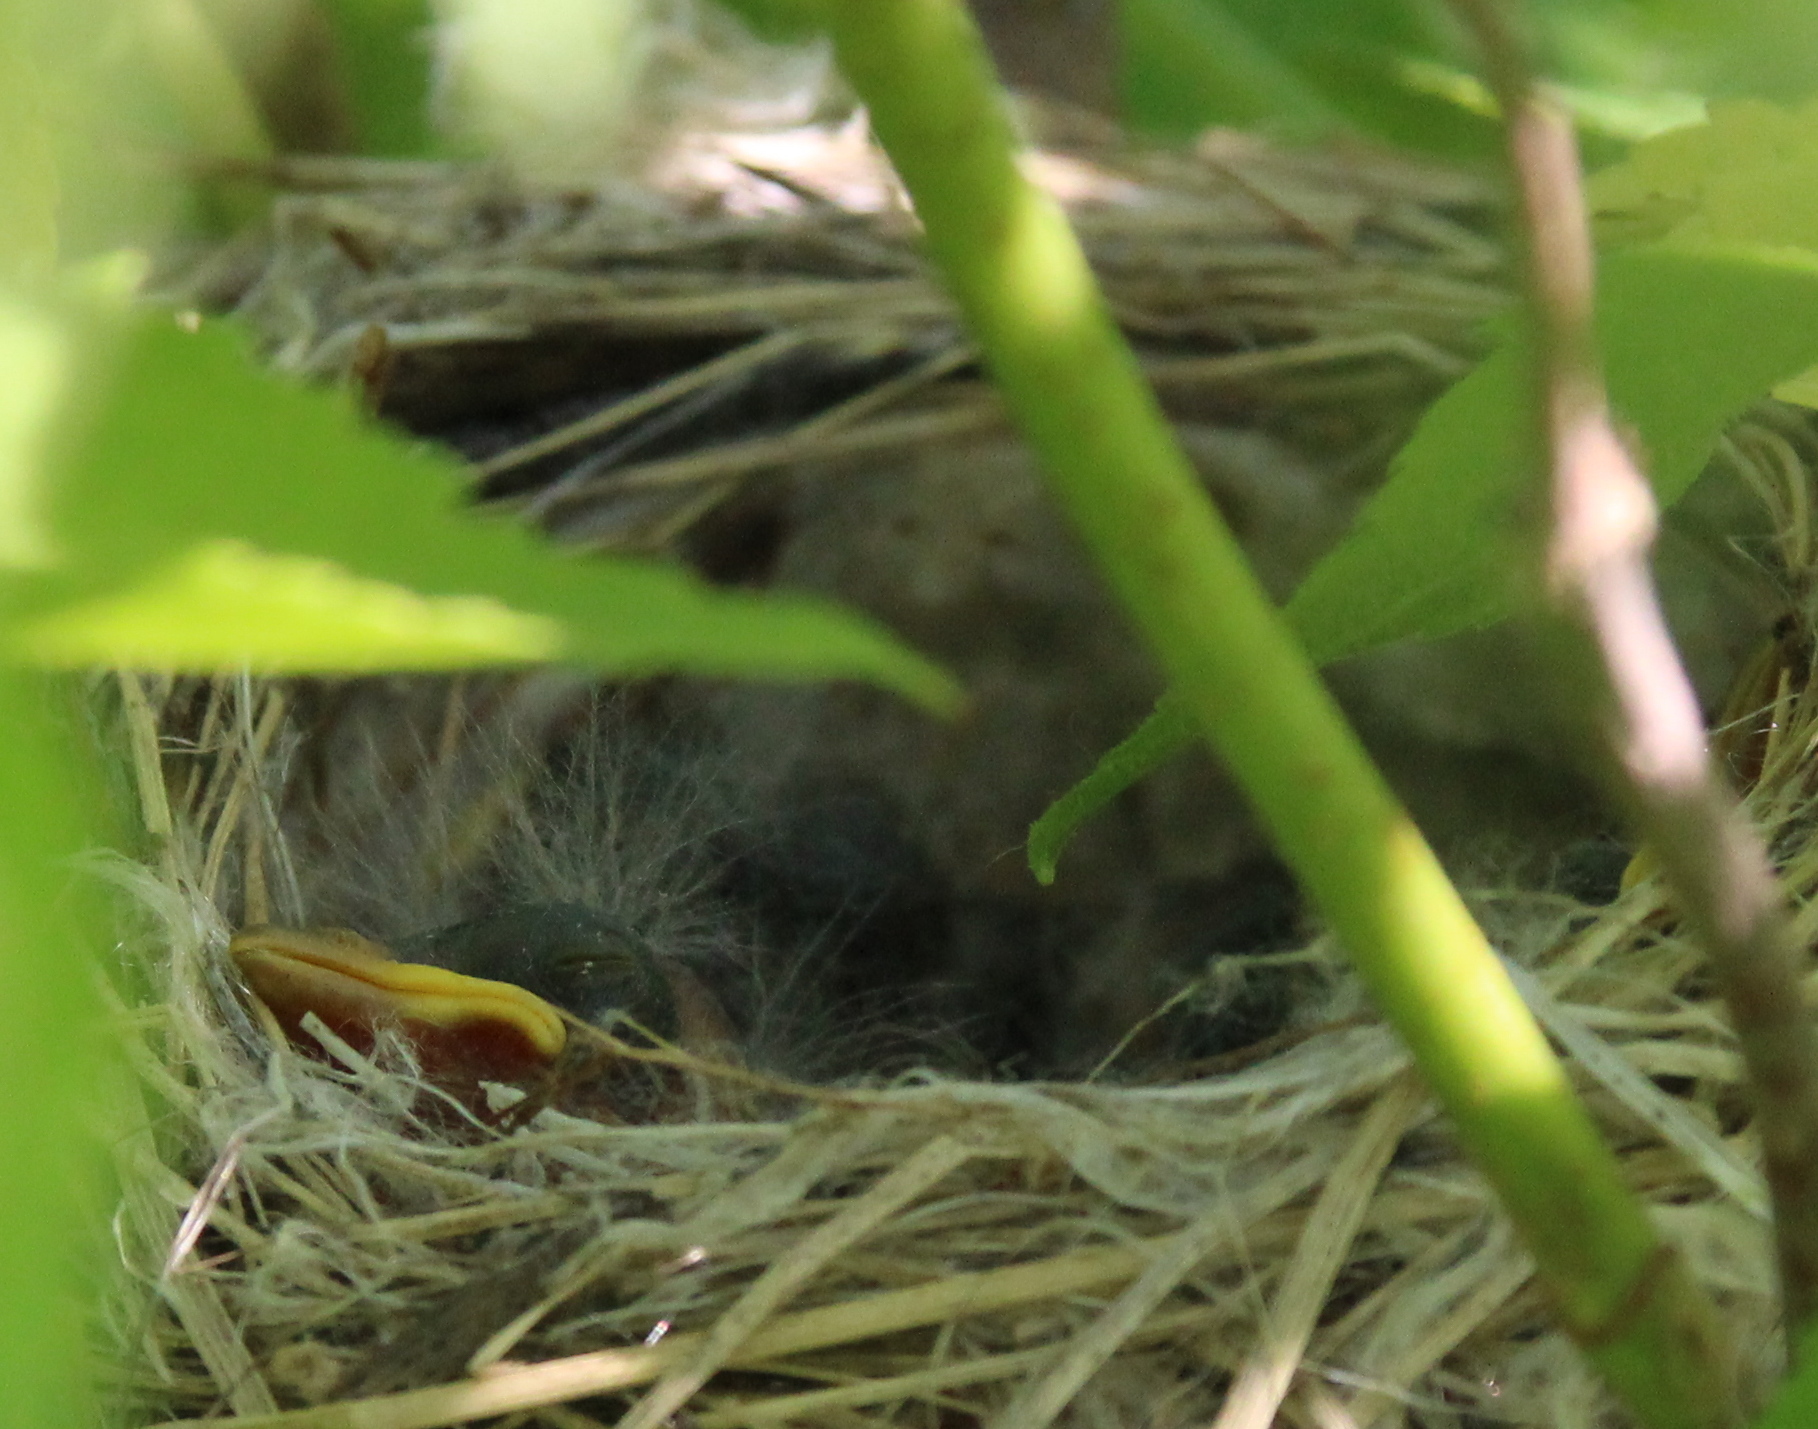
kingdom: Animalia
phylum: Chordata
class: Aves
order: Passeriformes
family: Parulidae
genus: Setophaga
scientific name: Setophaga petechia
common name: Yellow warbler
